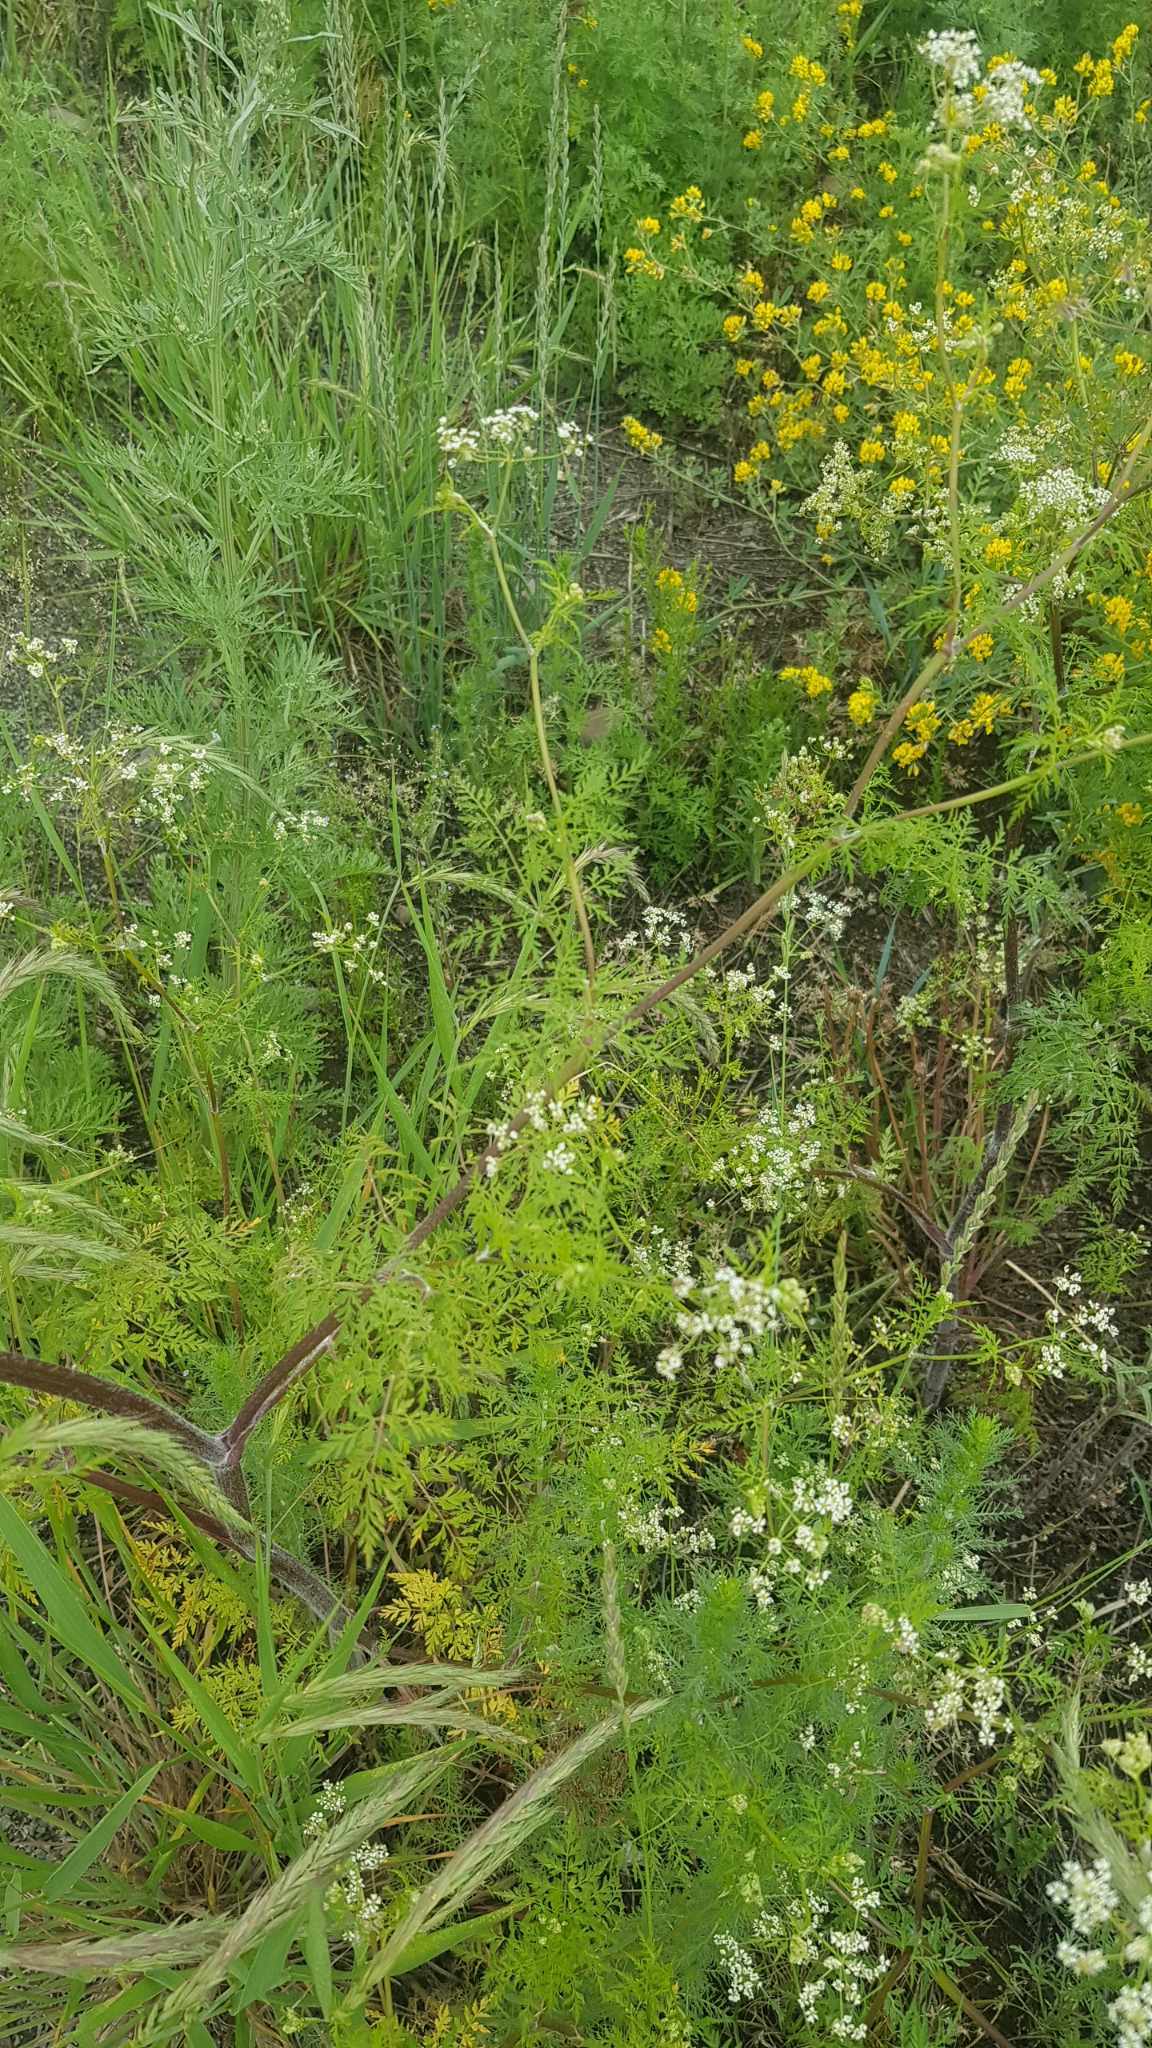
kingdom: Plantae
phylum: Tracheophyta
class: Magnoliopsida
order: Apiales
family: Apiaceae
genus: Sphallerocarpus
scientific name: Sphallerocarpus gracilis
